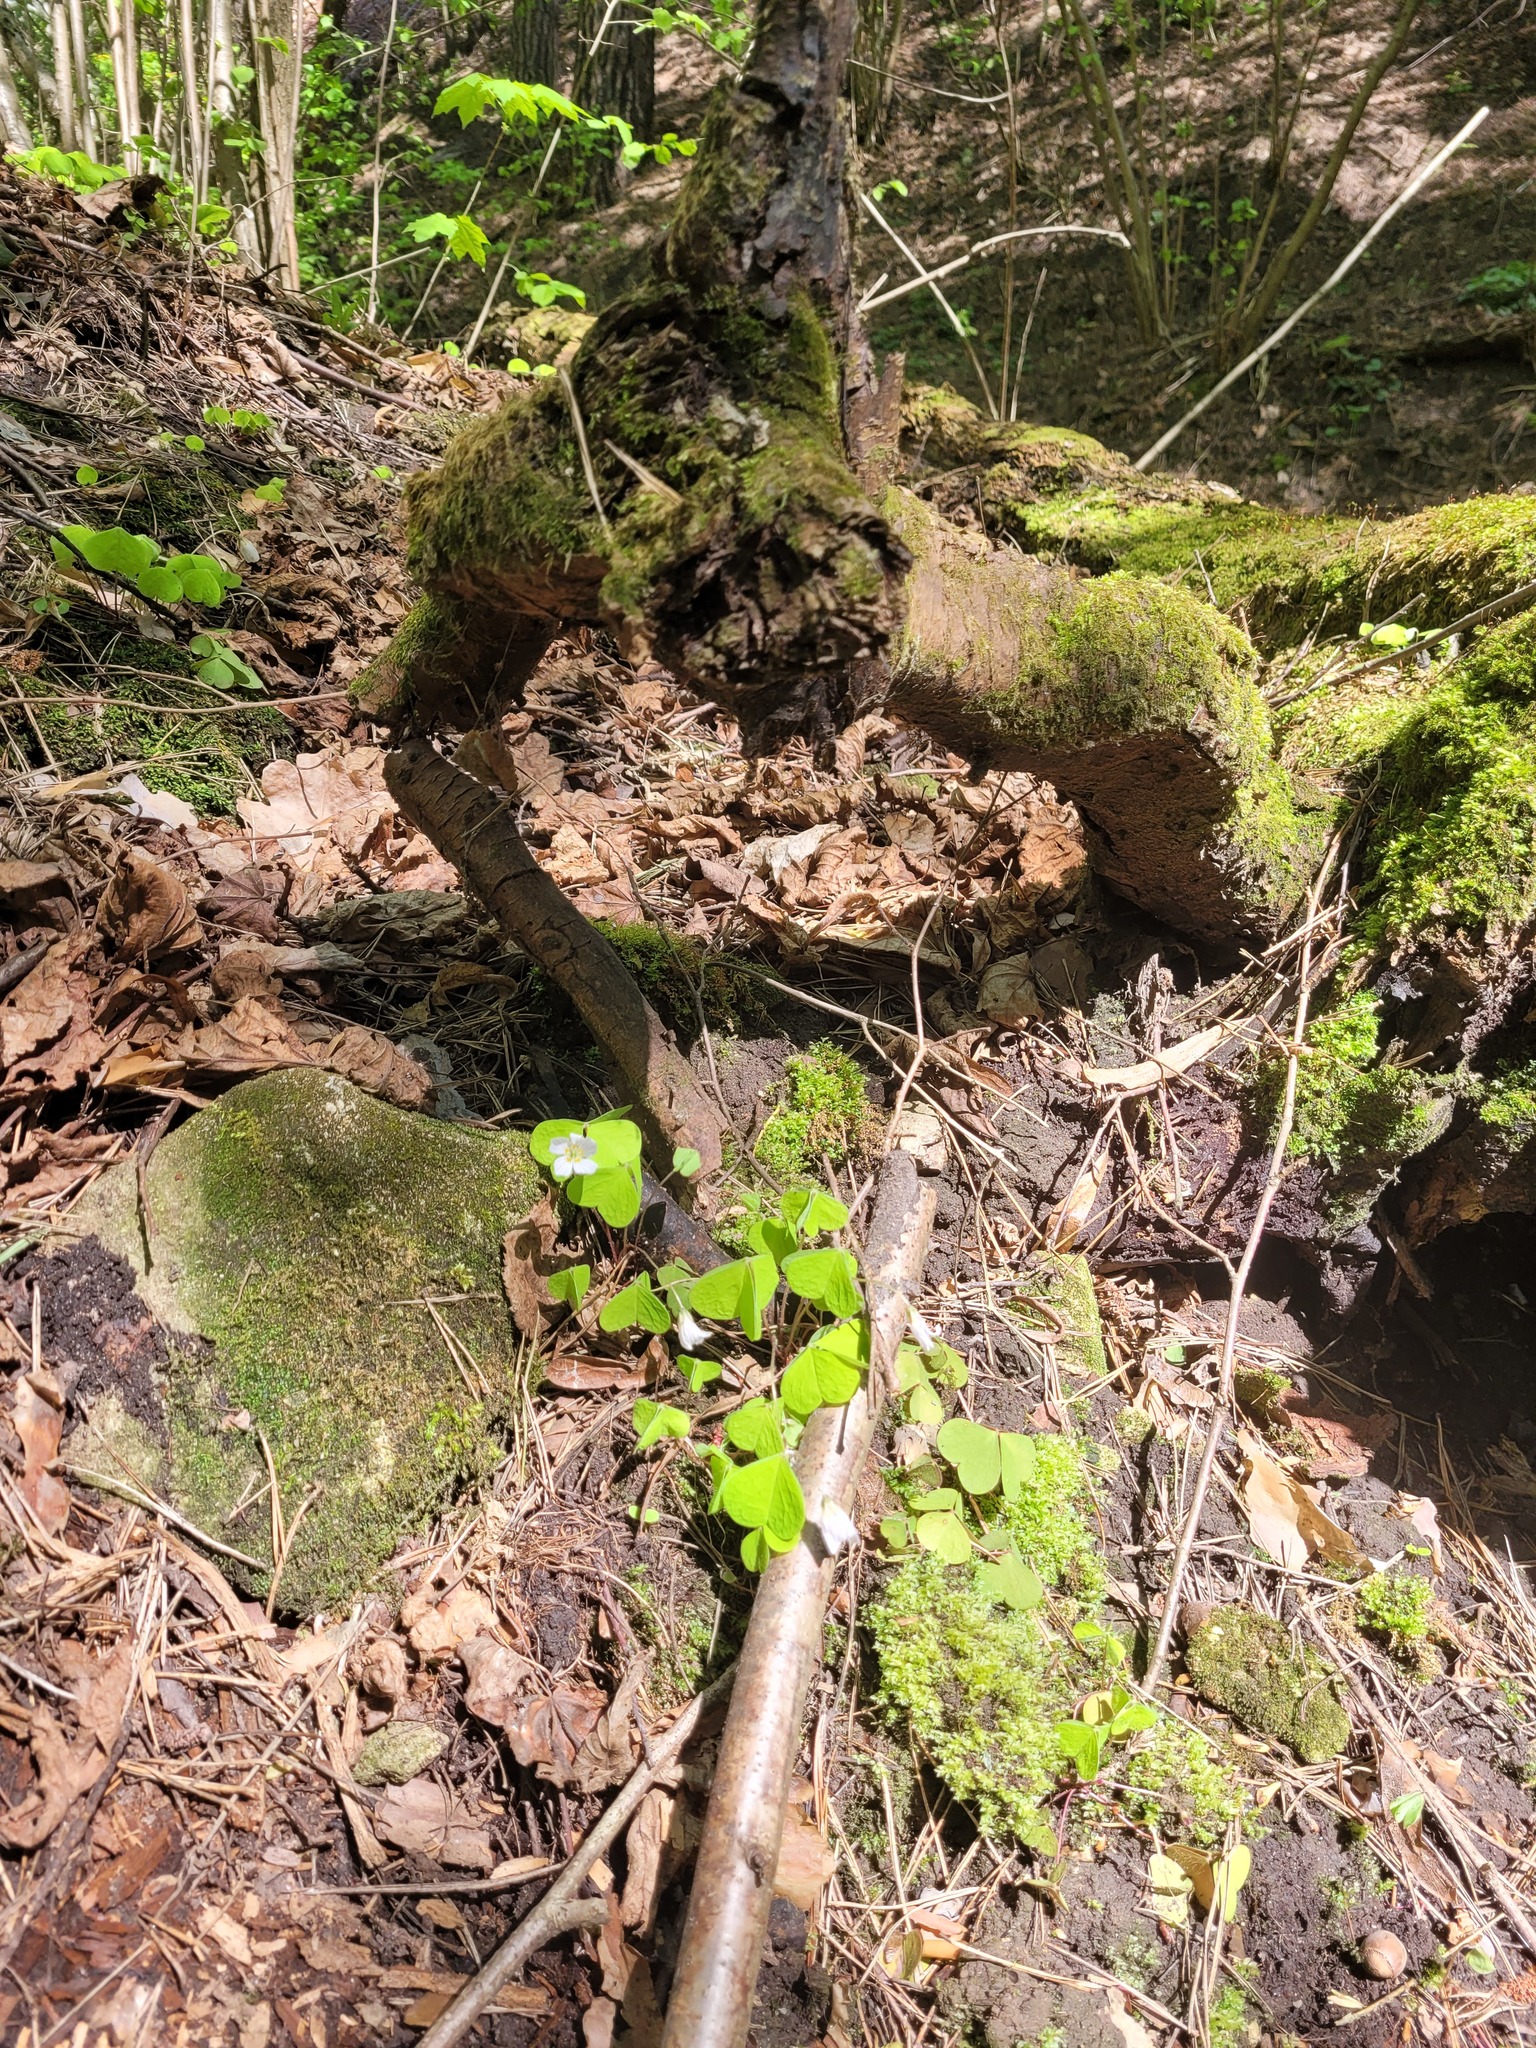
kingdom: Plantae
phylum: Tracheophyta
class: Magnoliopsida
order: Oxalidales
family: Oxalidaceae
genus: Oxalis
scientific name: Oxalis acetosella
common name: Wood-sorrel
